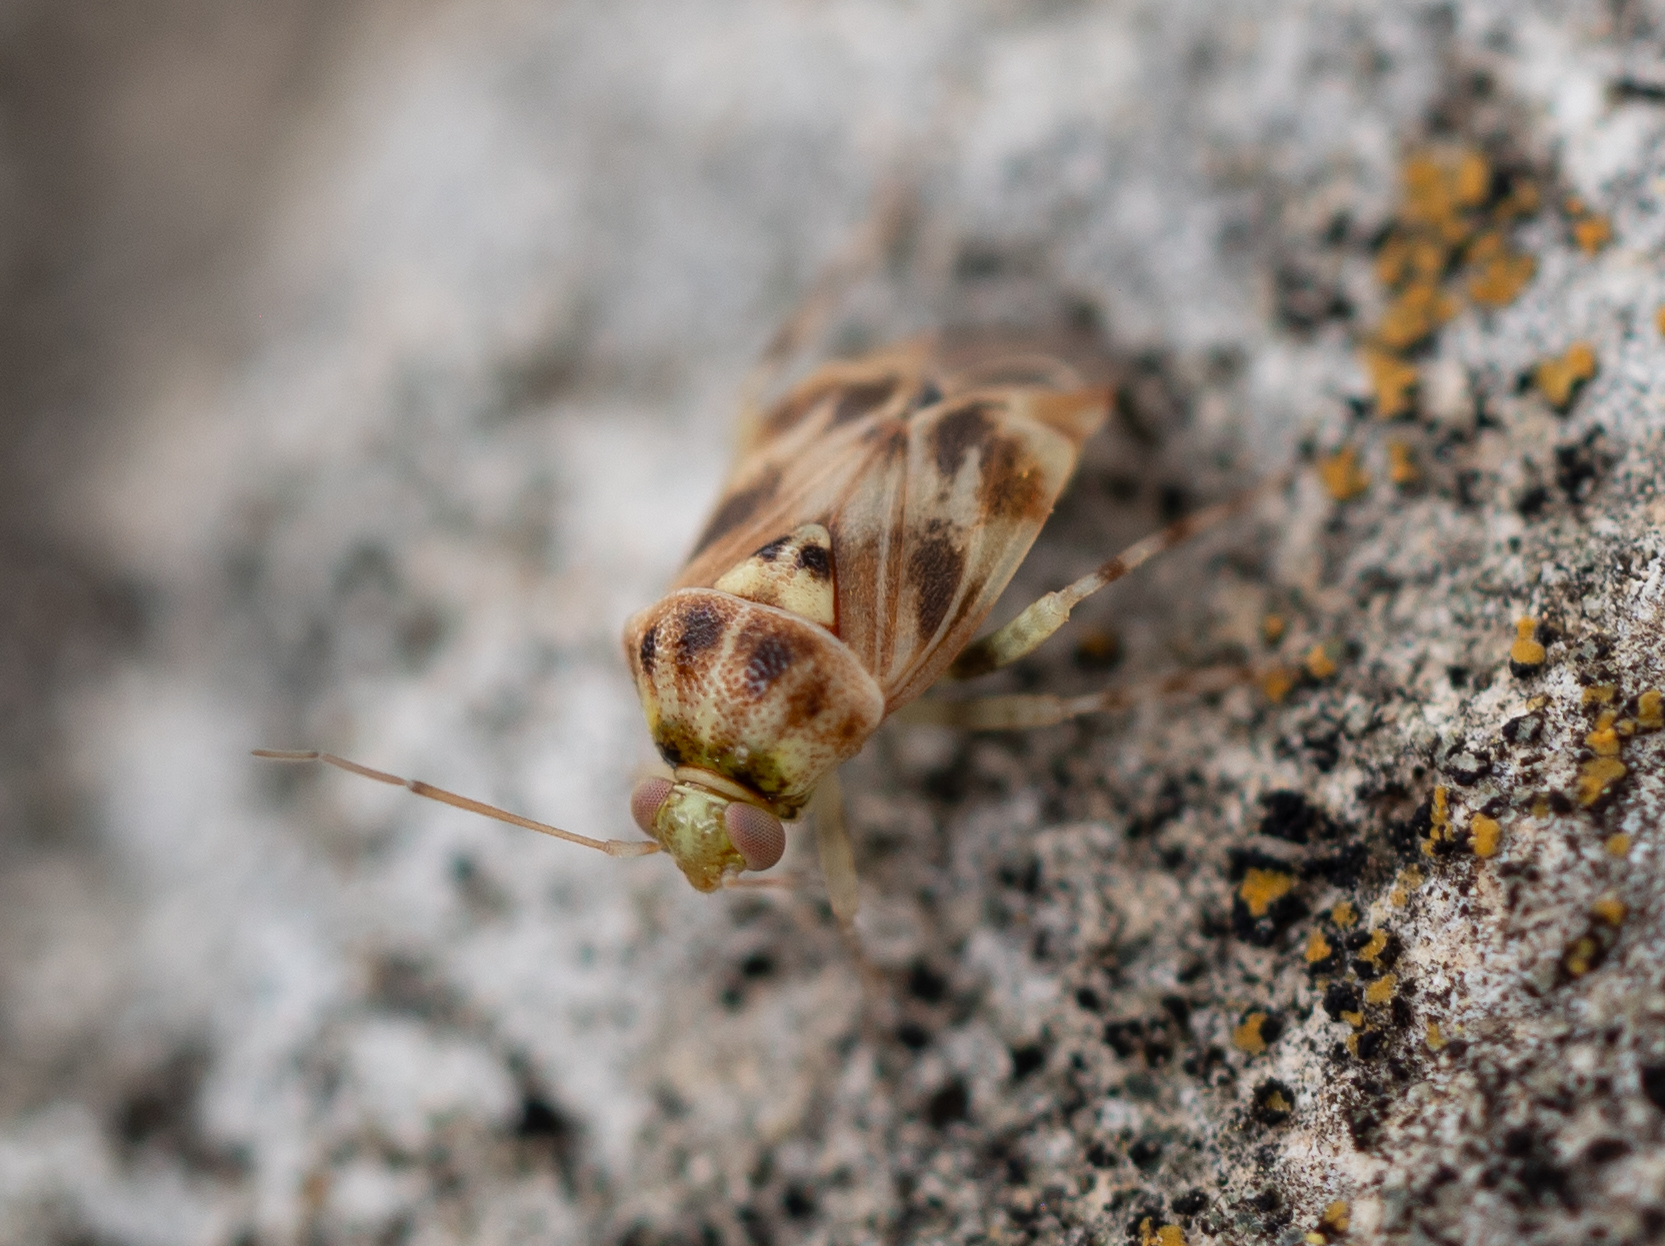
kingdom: Animalia
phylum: Arthropoda
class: Insecta
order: Hemiptera
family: Miridae
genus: Tropidosteptes
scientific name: Tropidosteptes quercicola
